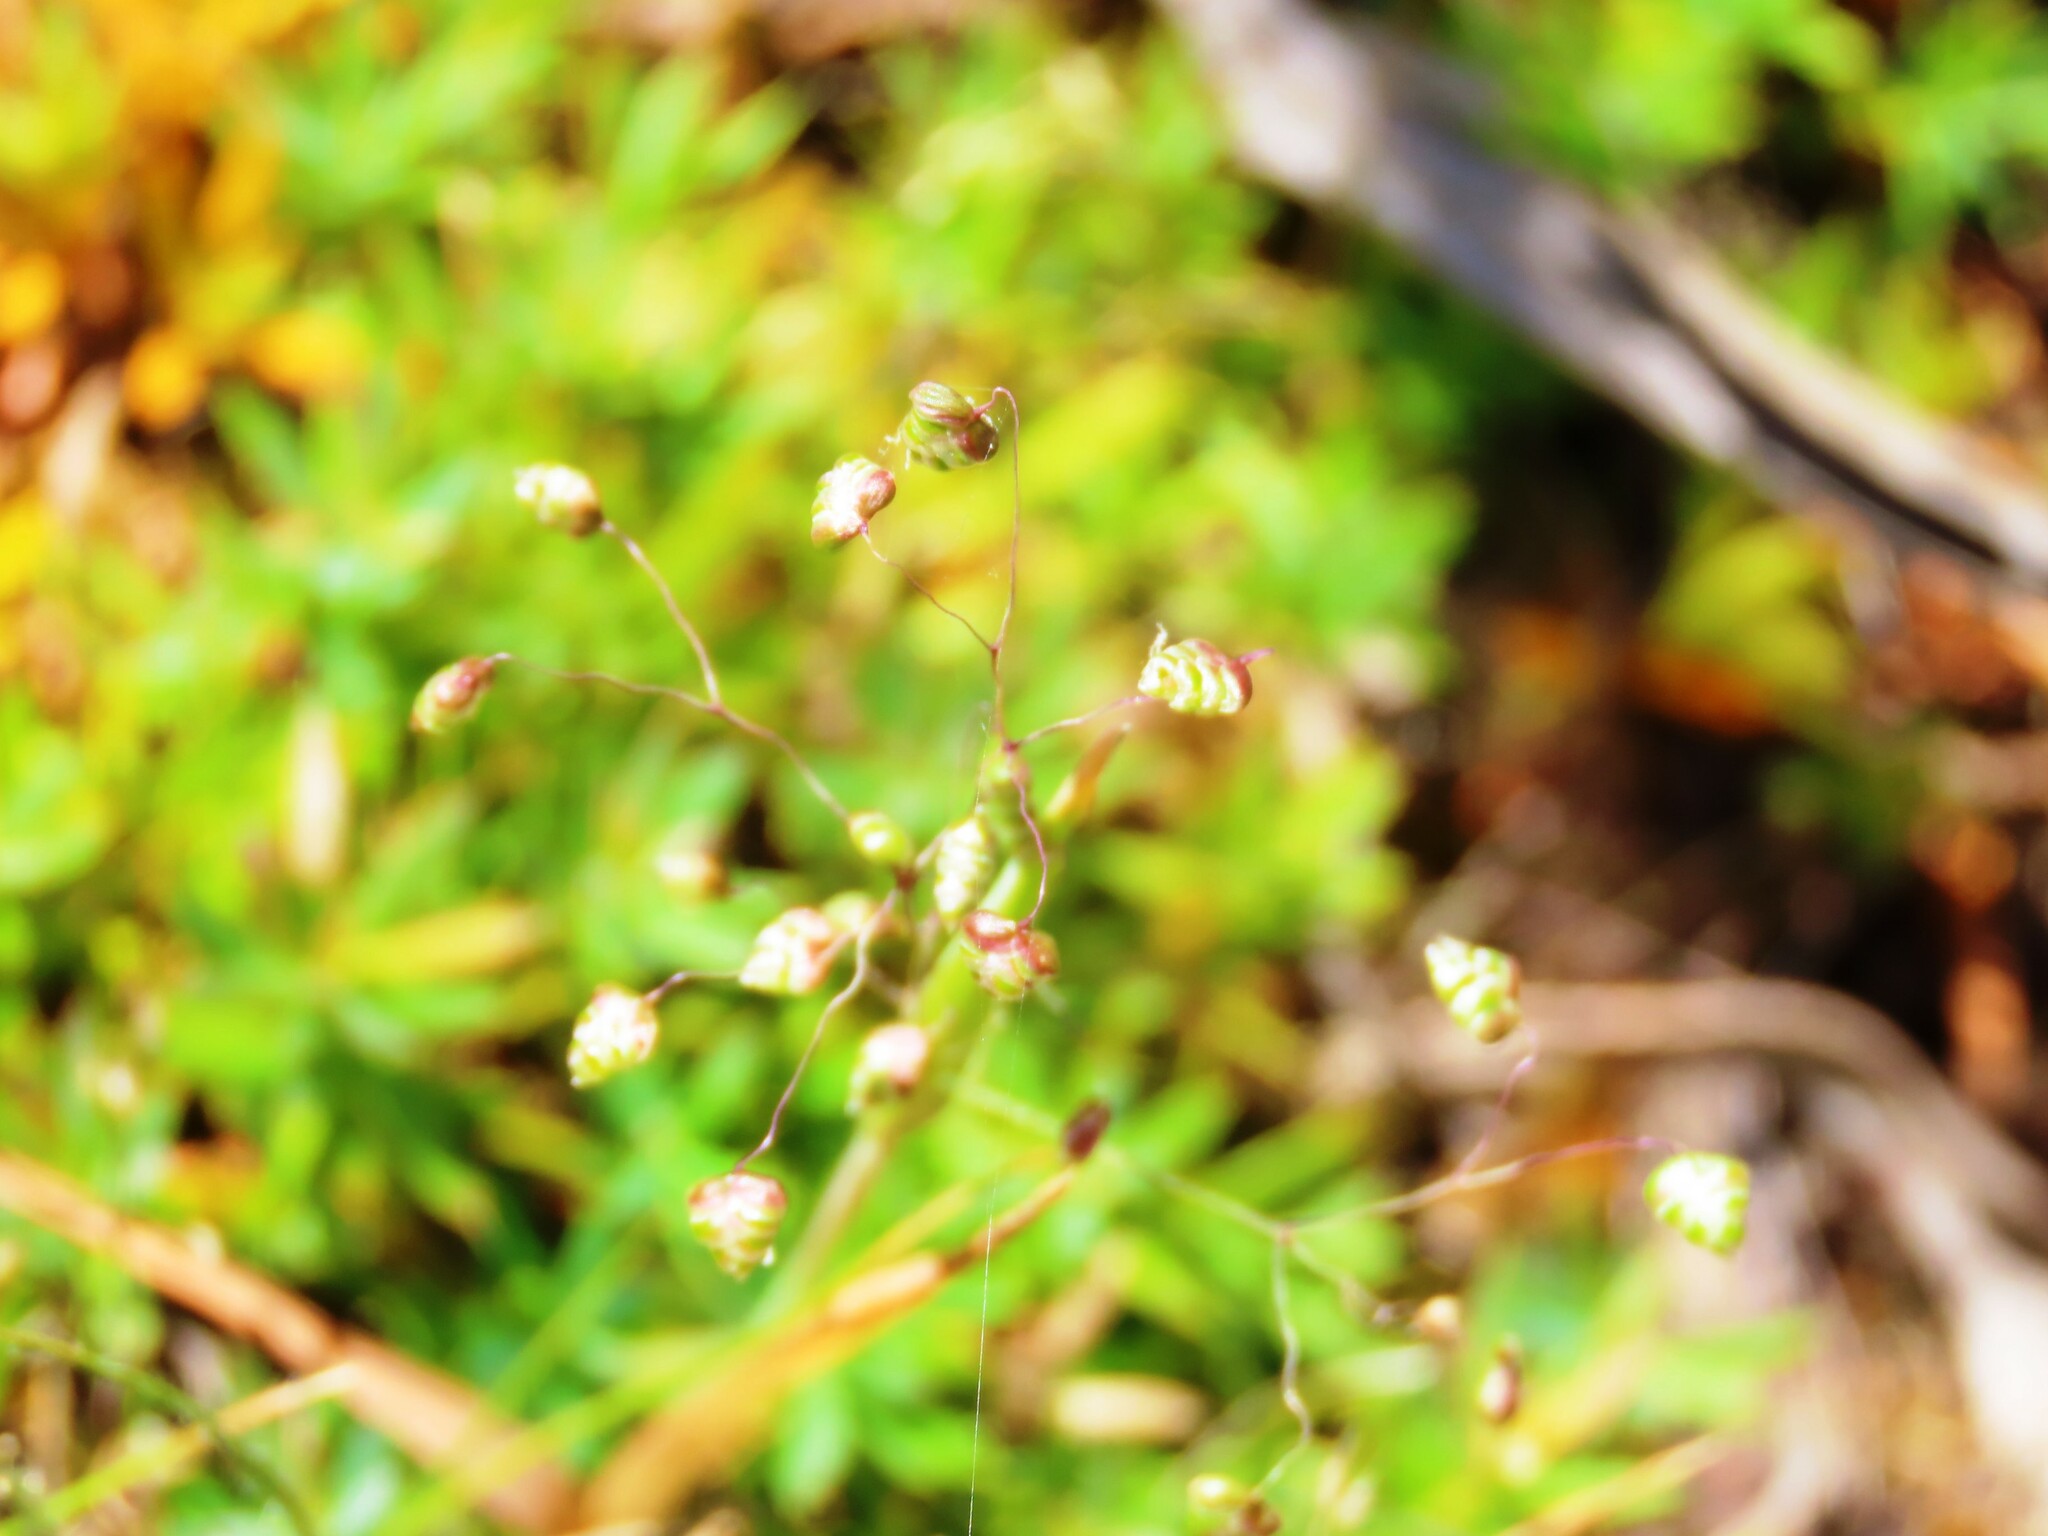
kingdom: Plantae
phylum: Tracheophyta
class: Liliopsida
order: Poales
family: Poaceae
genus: Briza
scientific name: Briza minor
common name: Lesser quaking-grass
